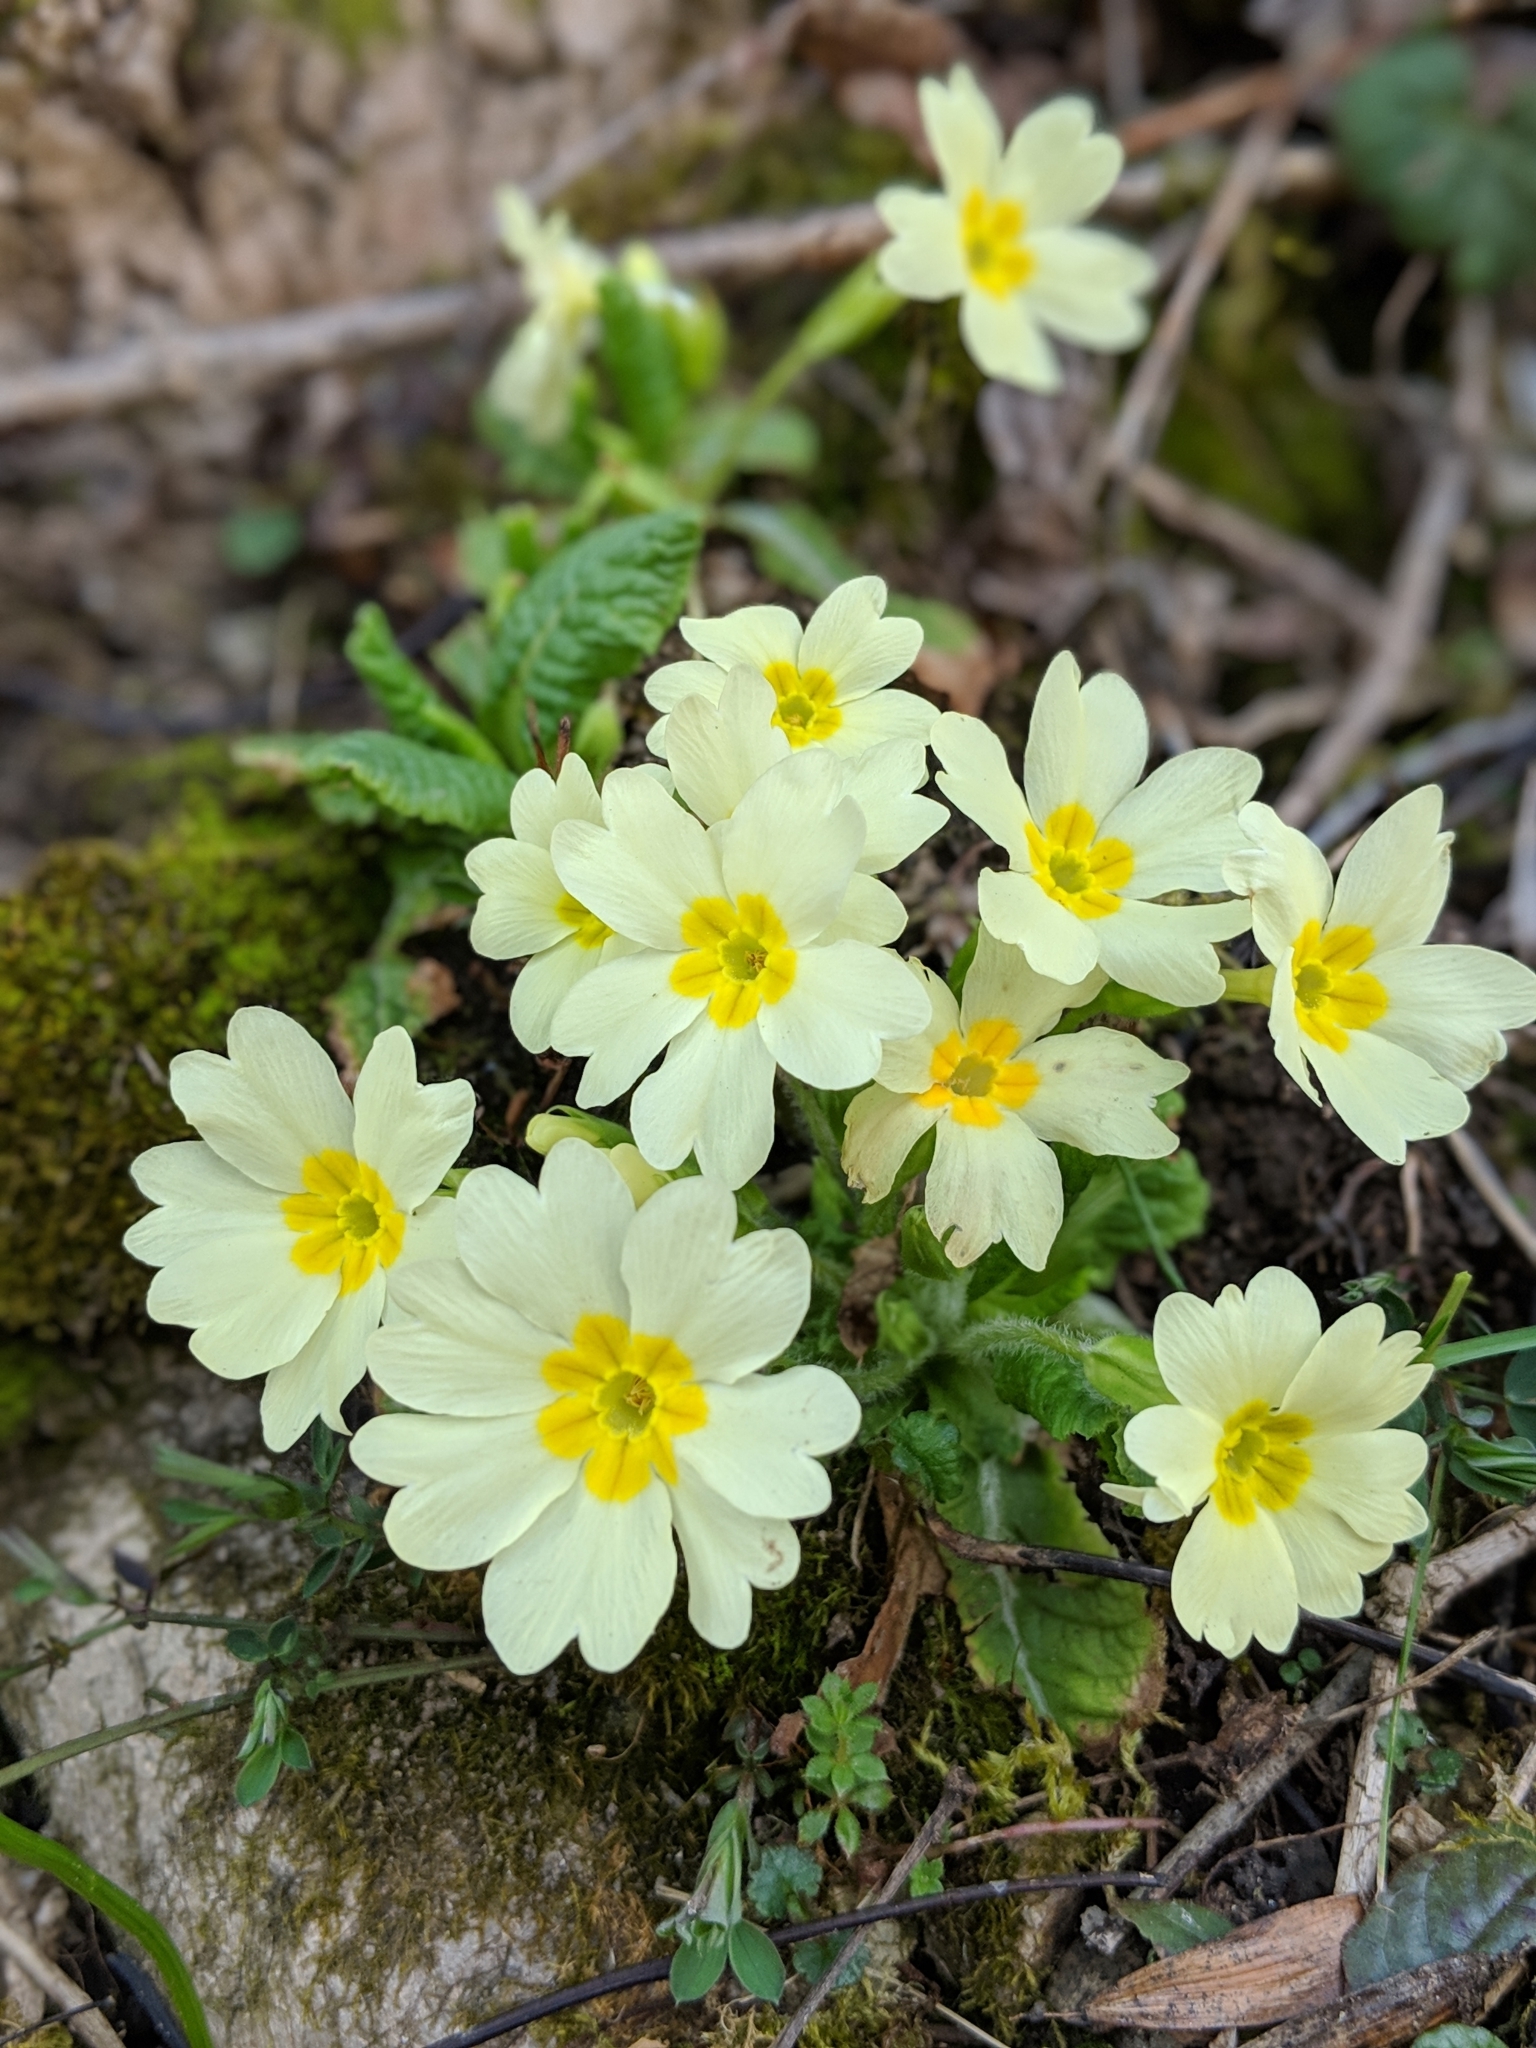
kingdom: Plantae
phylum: Tracheophyta
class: Magnoliopsida
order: Ericales
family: Primulaceae
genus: Primula
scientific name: Primula vulgaris
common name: Primrose
